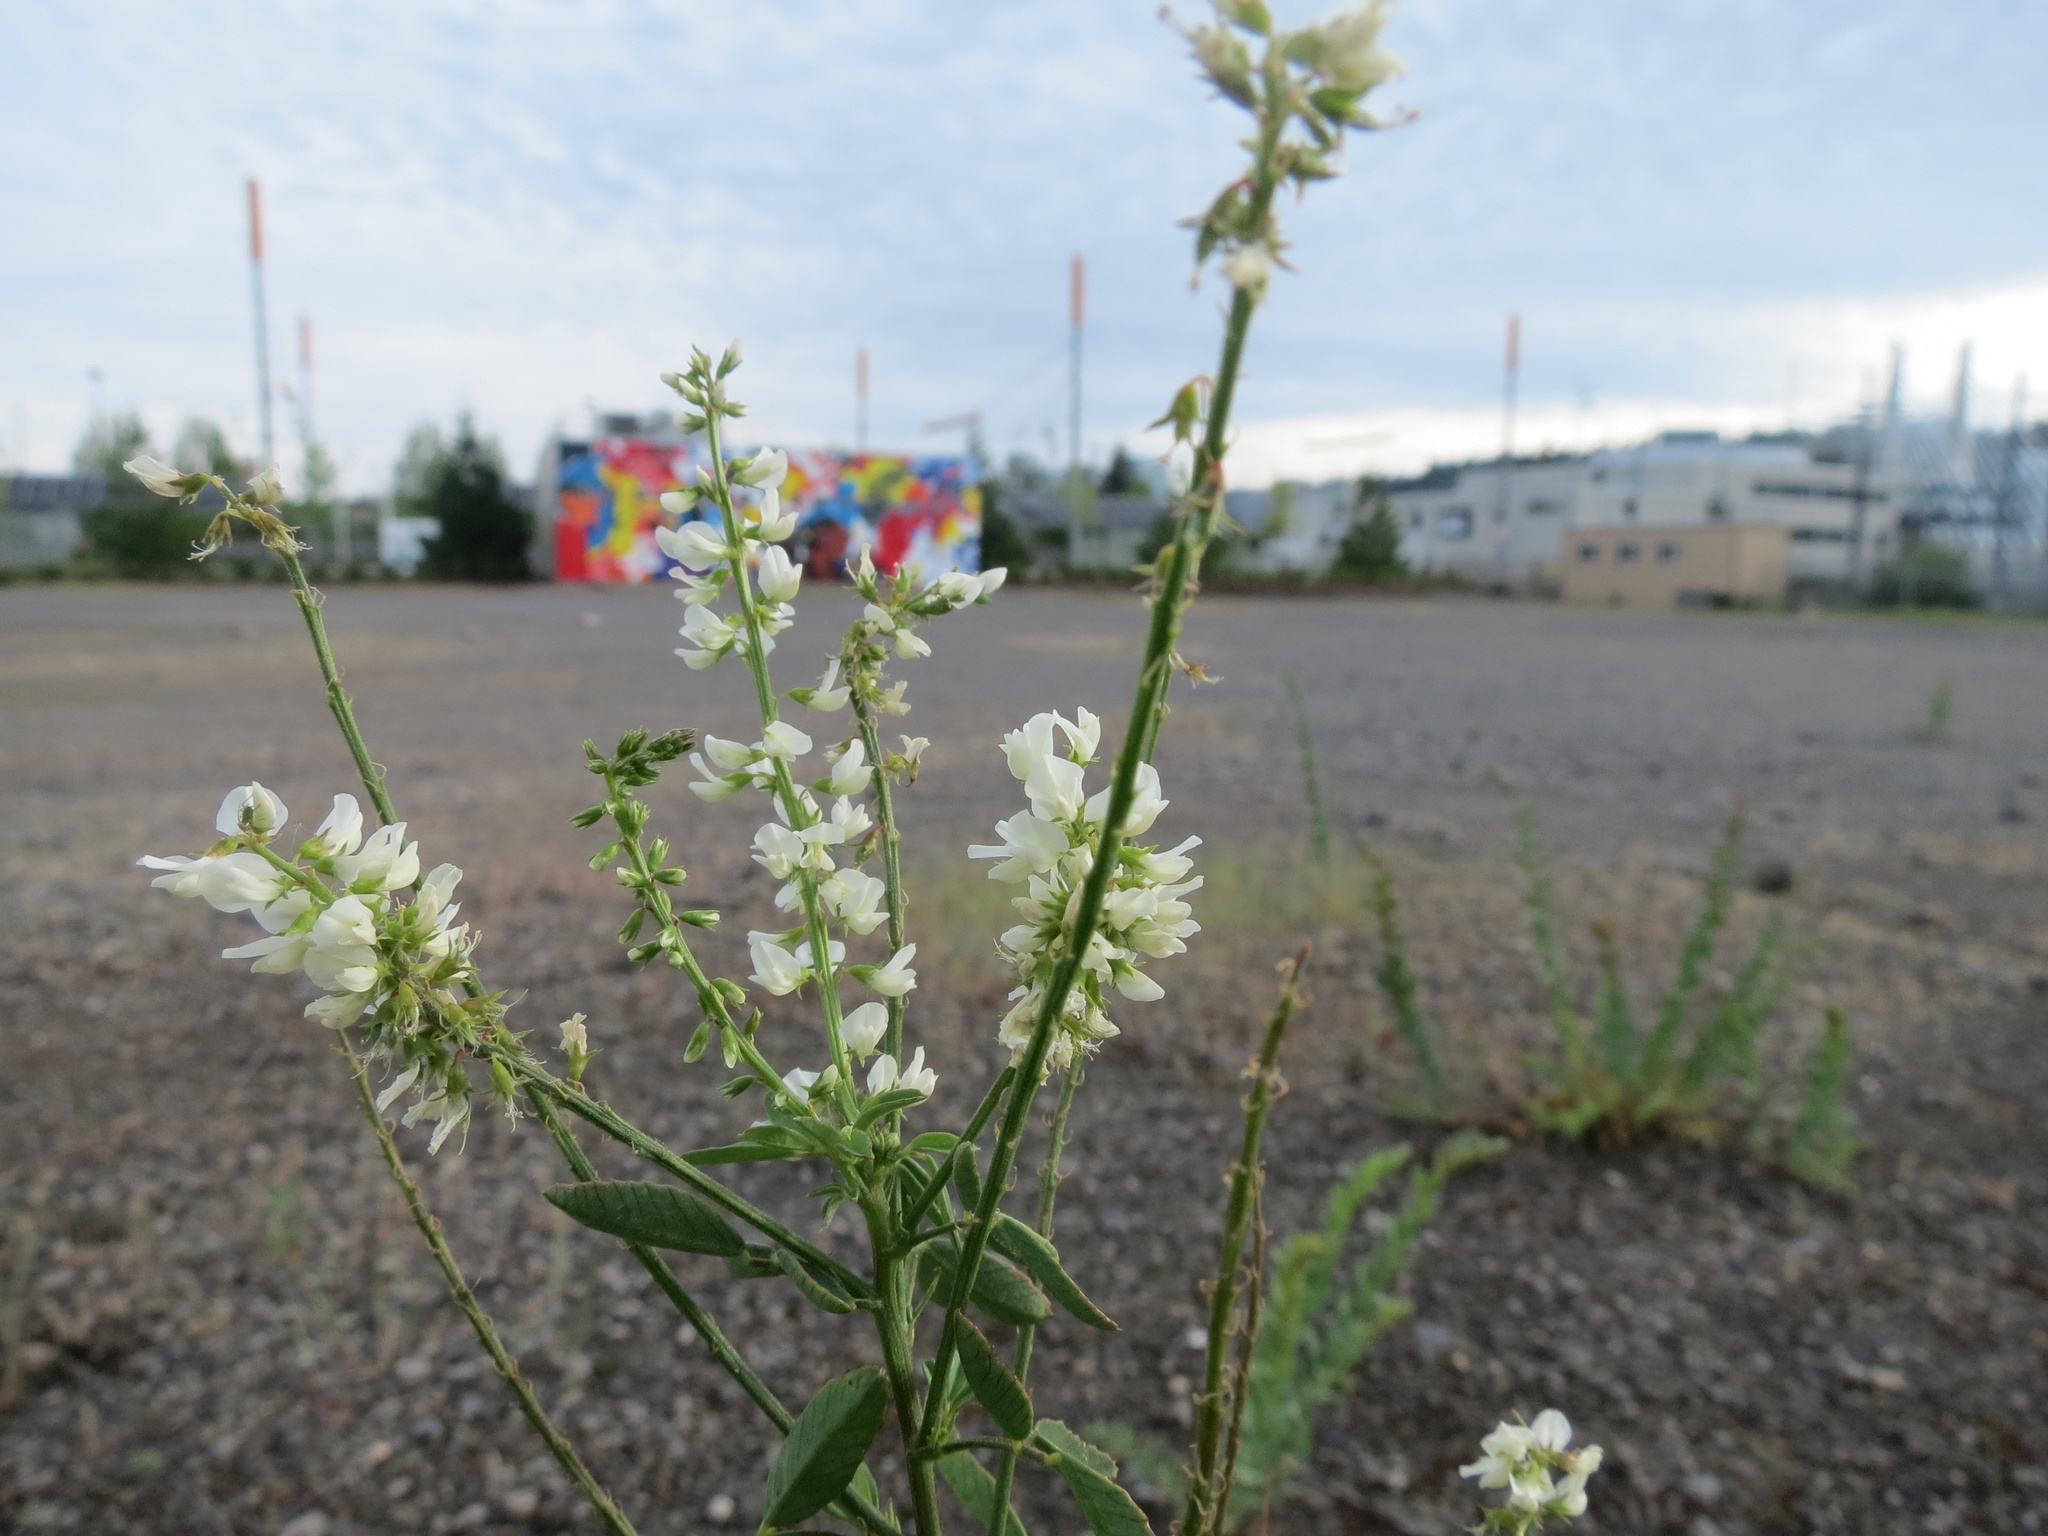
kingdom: Plantae
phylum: Tracheophyta
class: Magnoliopsida
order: Fabales
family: Fabaceae
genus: Melilotus
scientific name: Melilotus albus
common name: White melilot
